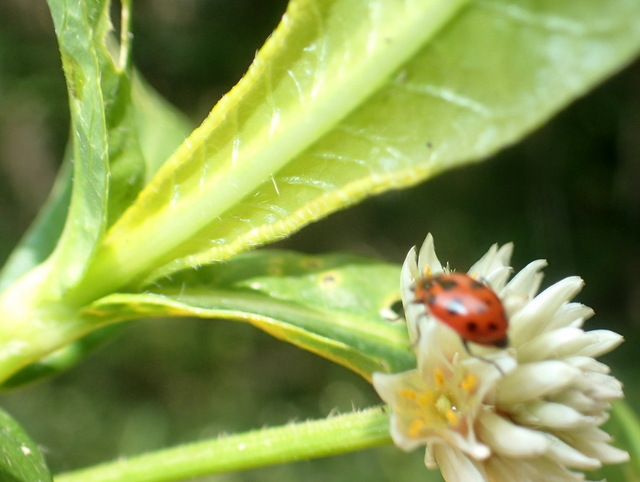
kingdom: Animalia
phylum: Arthropoda
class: Insecta
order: Coleoptera
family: Coccinellidae
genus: Coleomegilla
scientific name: Coleomegilla maculata
